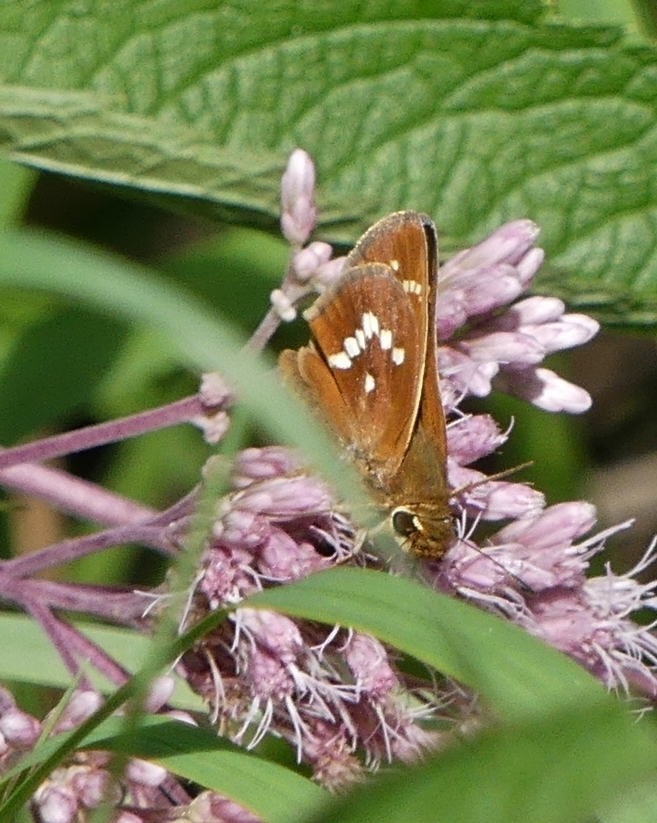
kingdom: Animalia
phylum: Arthropoda
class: Insecta
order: Lepidoptera
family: Hesperiidae
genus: Hesperia
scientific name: Hesperia leonardus
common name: Leonard's skipper
